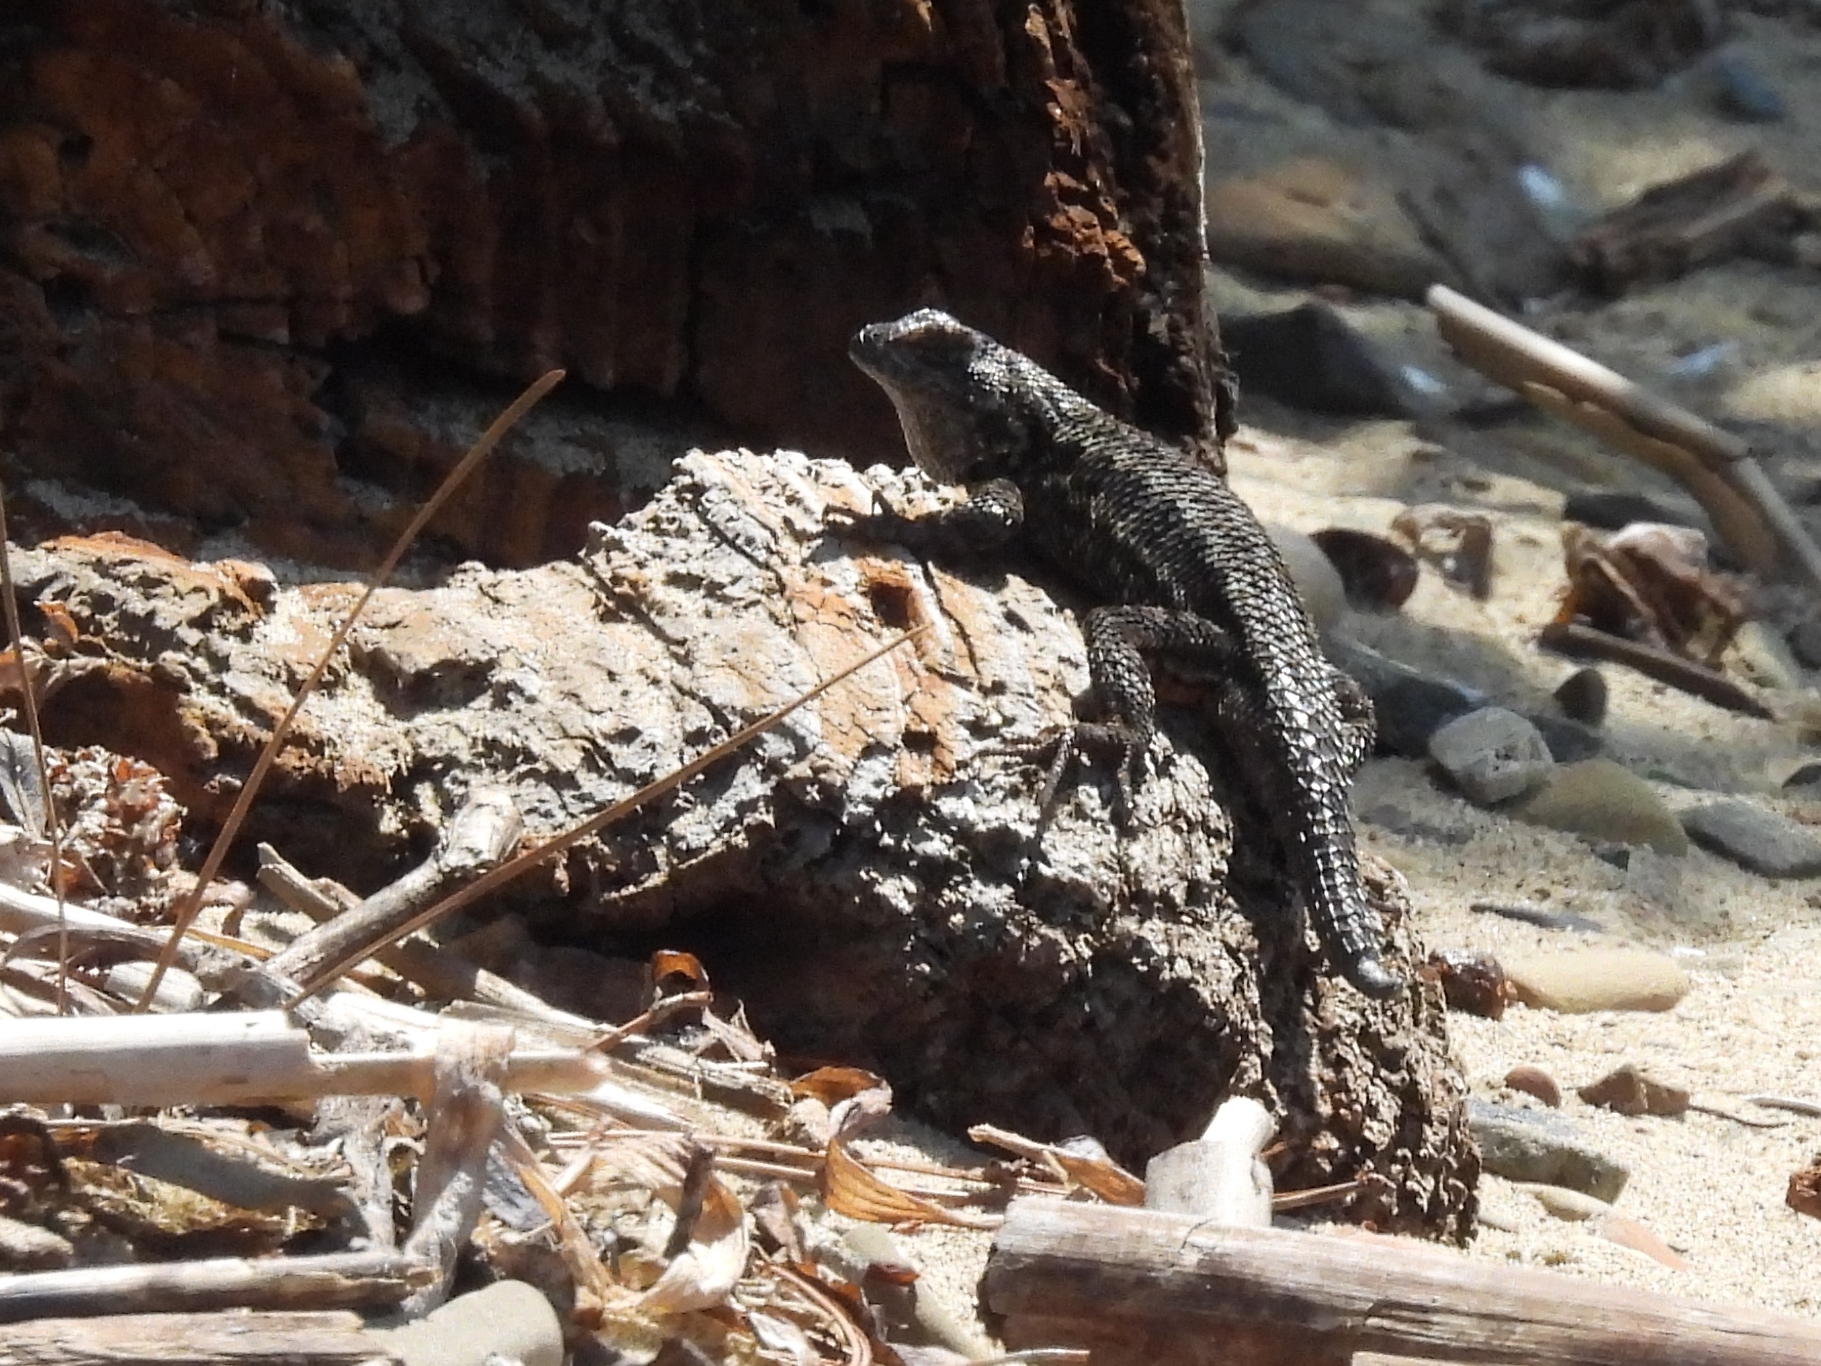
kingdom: Animalia
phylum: Chordata
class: Squamata
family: Phrynosomatidae
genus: Sceloporus
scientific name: Sceloporus occidentalis
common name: Western fence lizard
